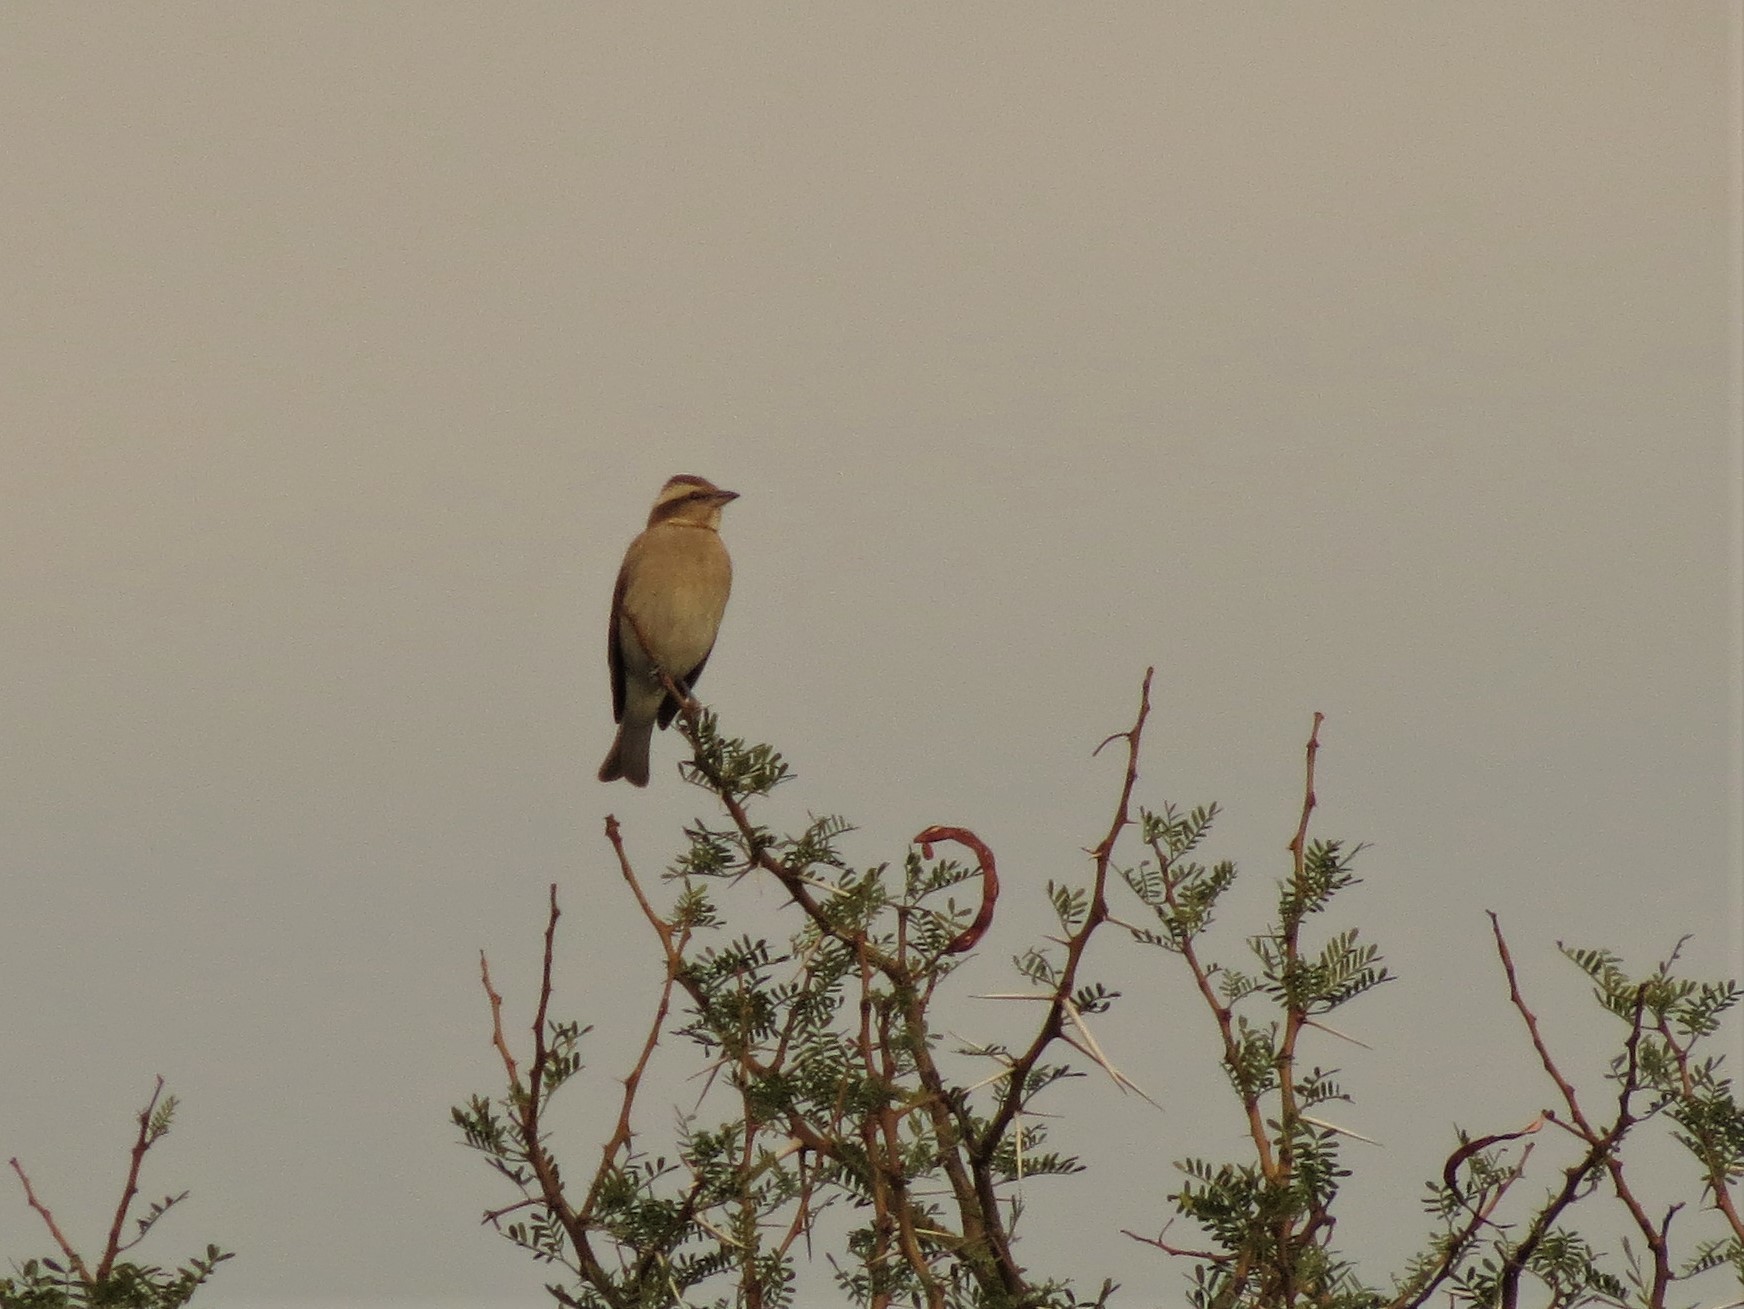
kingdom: Animalia
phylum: Chordata
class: Aves
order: Passeriformes
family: Passeridae
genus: Gymnoris
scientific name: Gymnoris superciliaris
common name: Yellow-throated petronia
